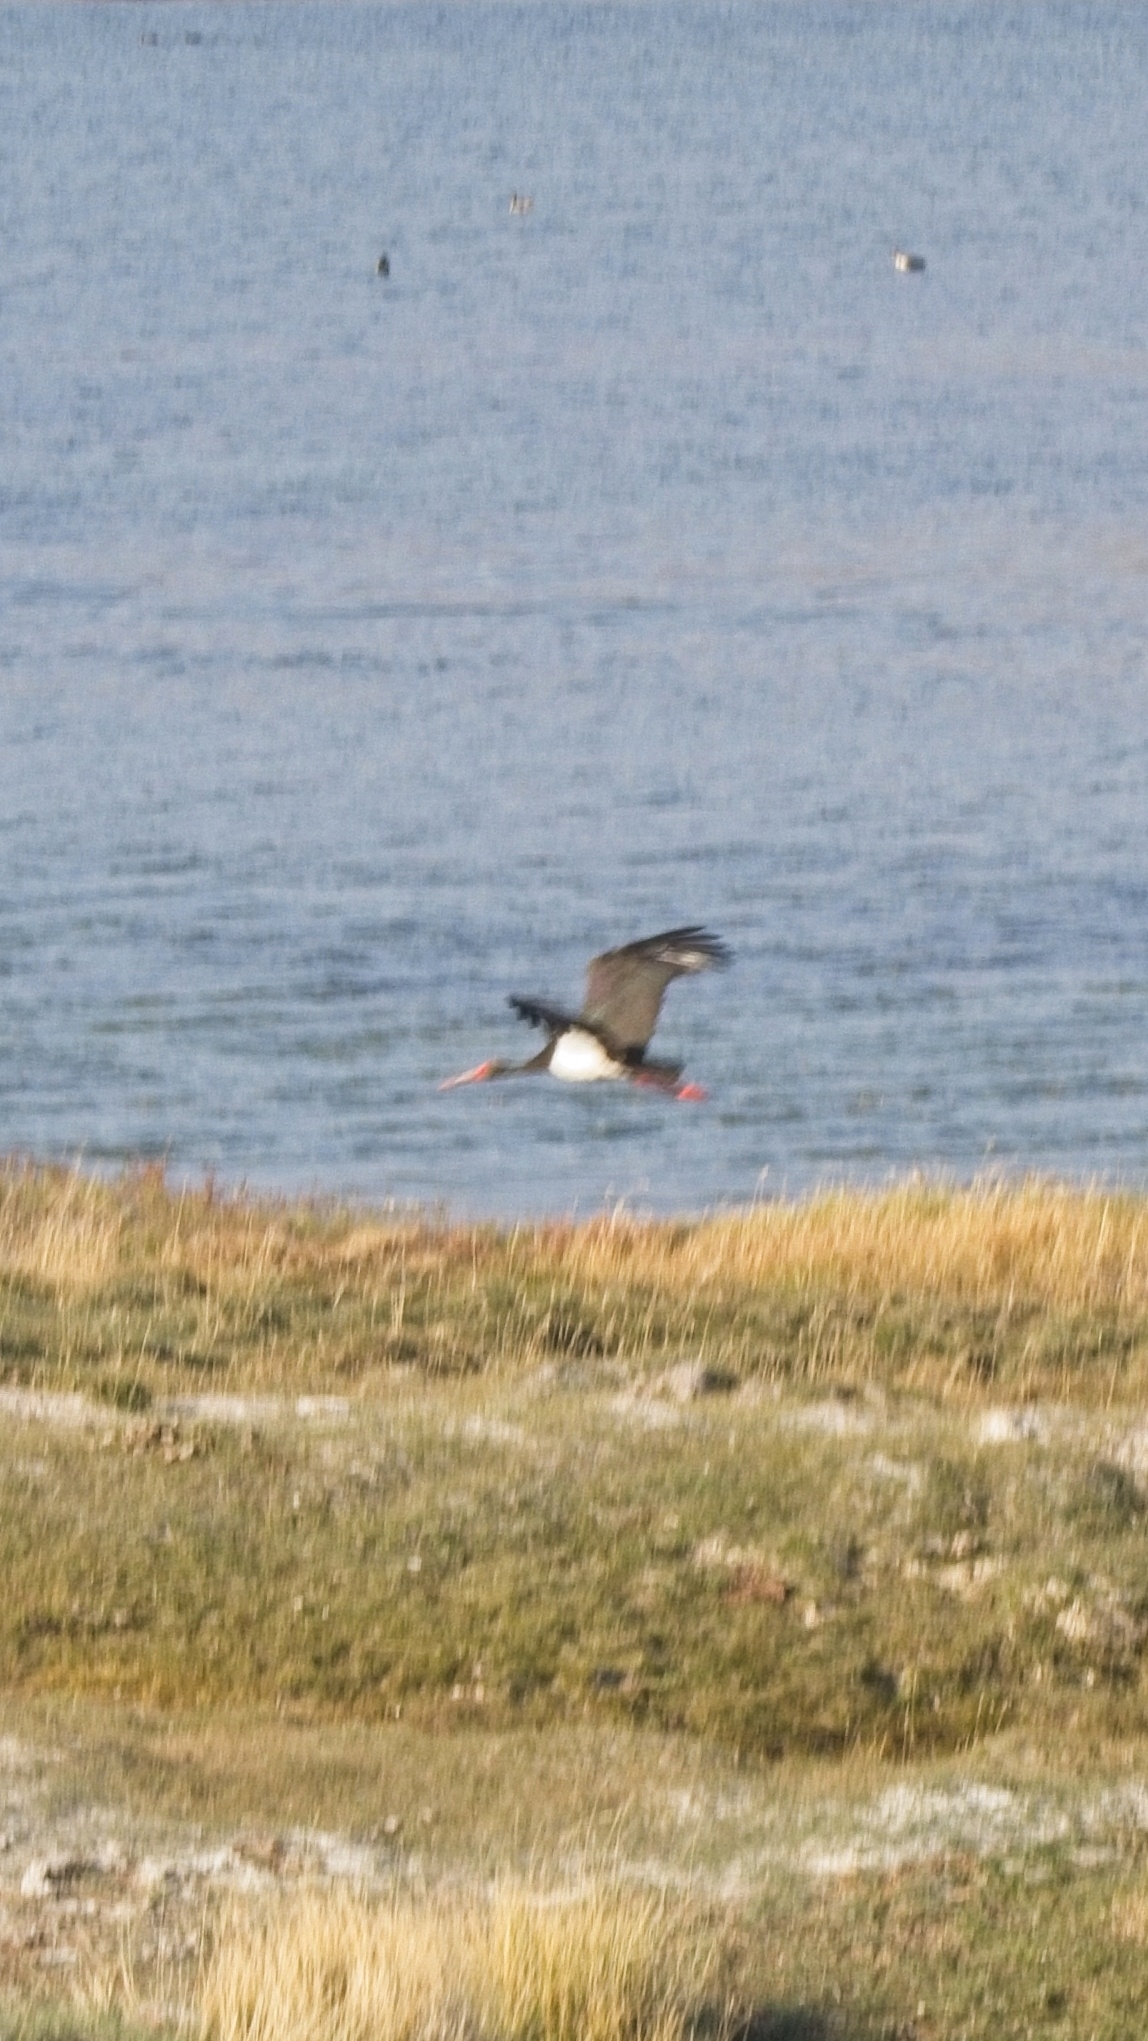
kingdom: Animalia
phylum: Chordata
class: Aves
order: Ciconiiformes
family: Ciconiidae
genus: Ciconia
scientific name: Ciconia nigra
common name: Black stork
